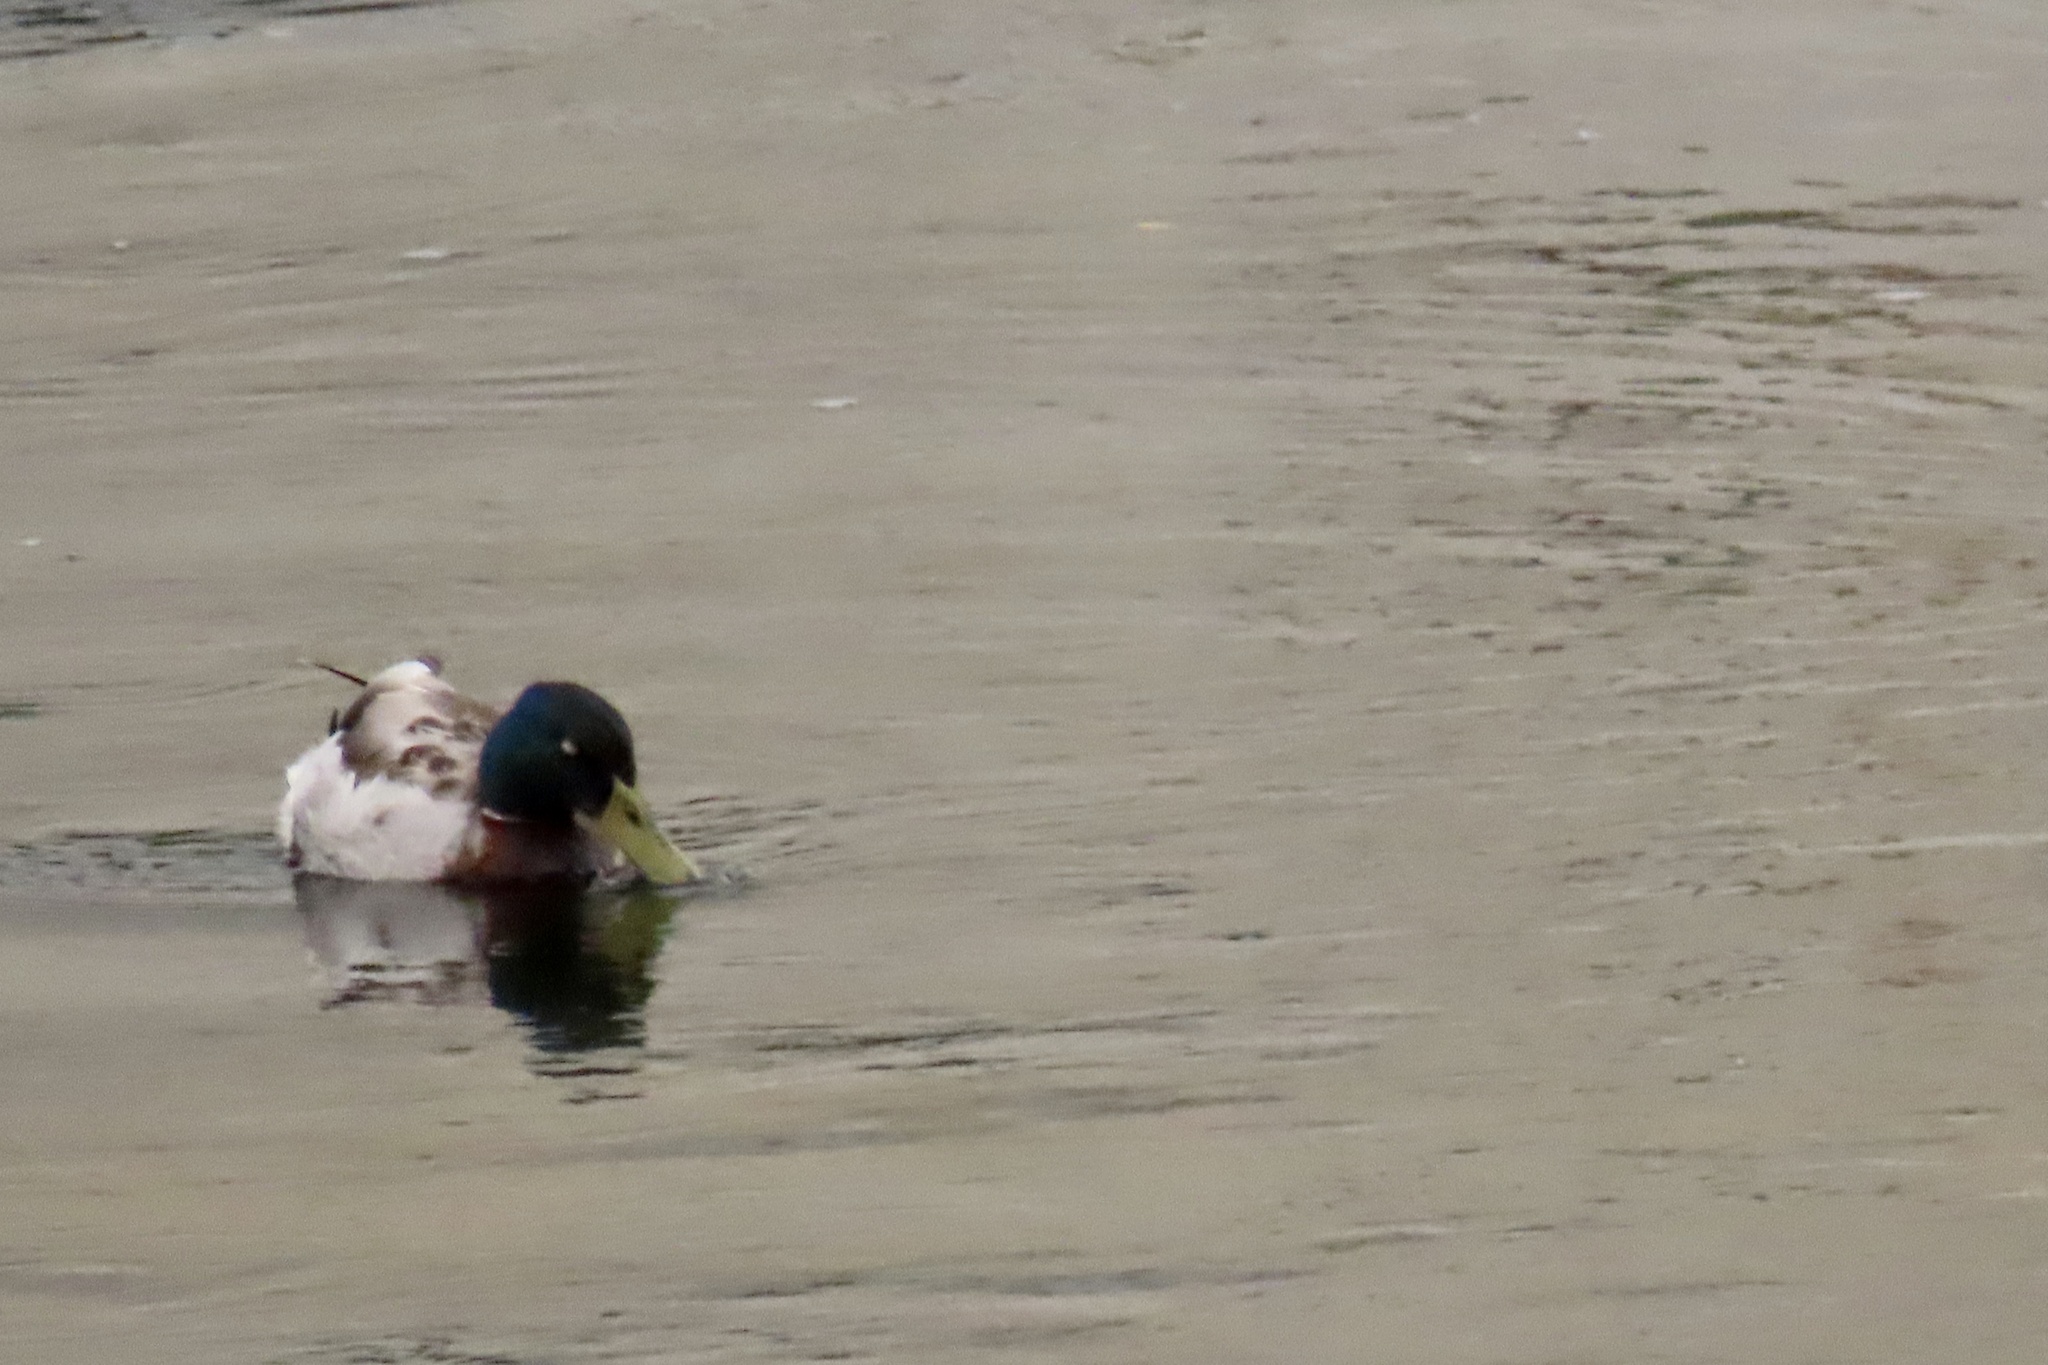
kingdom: Animalia
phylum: Chordata
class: Aves
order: Anseriformes
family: Anatidae
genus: Anas
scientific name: Anas platyrhynchos
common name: Mallard
